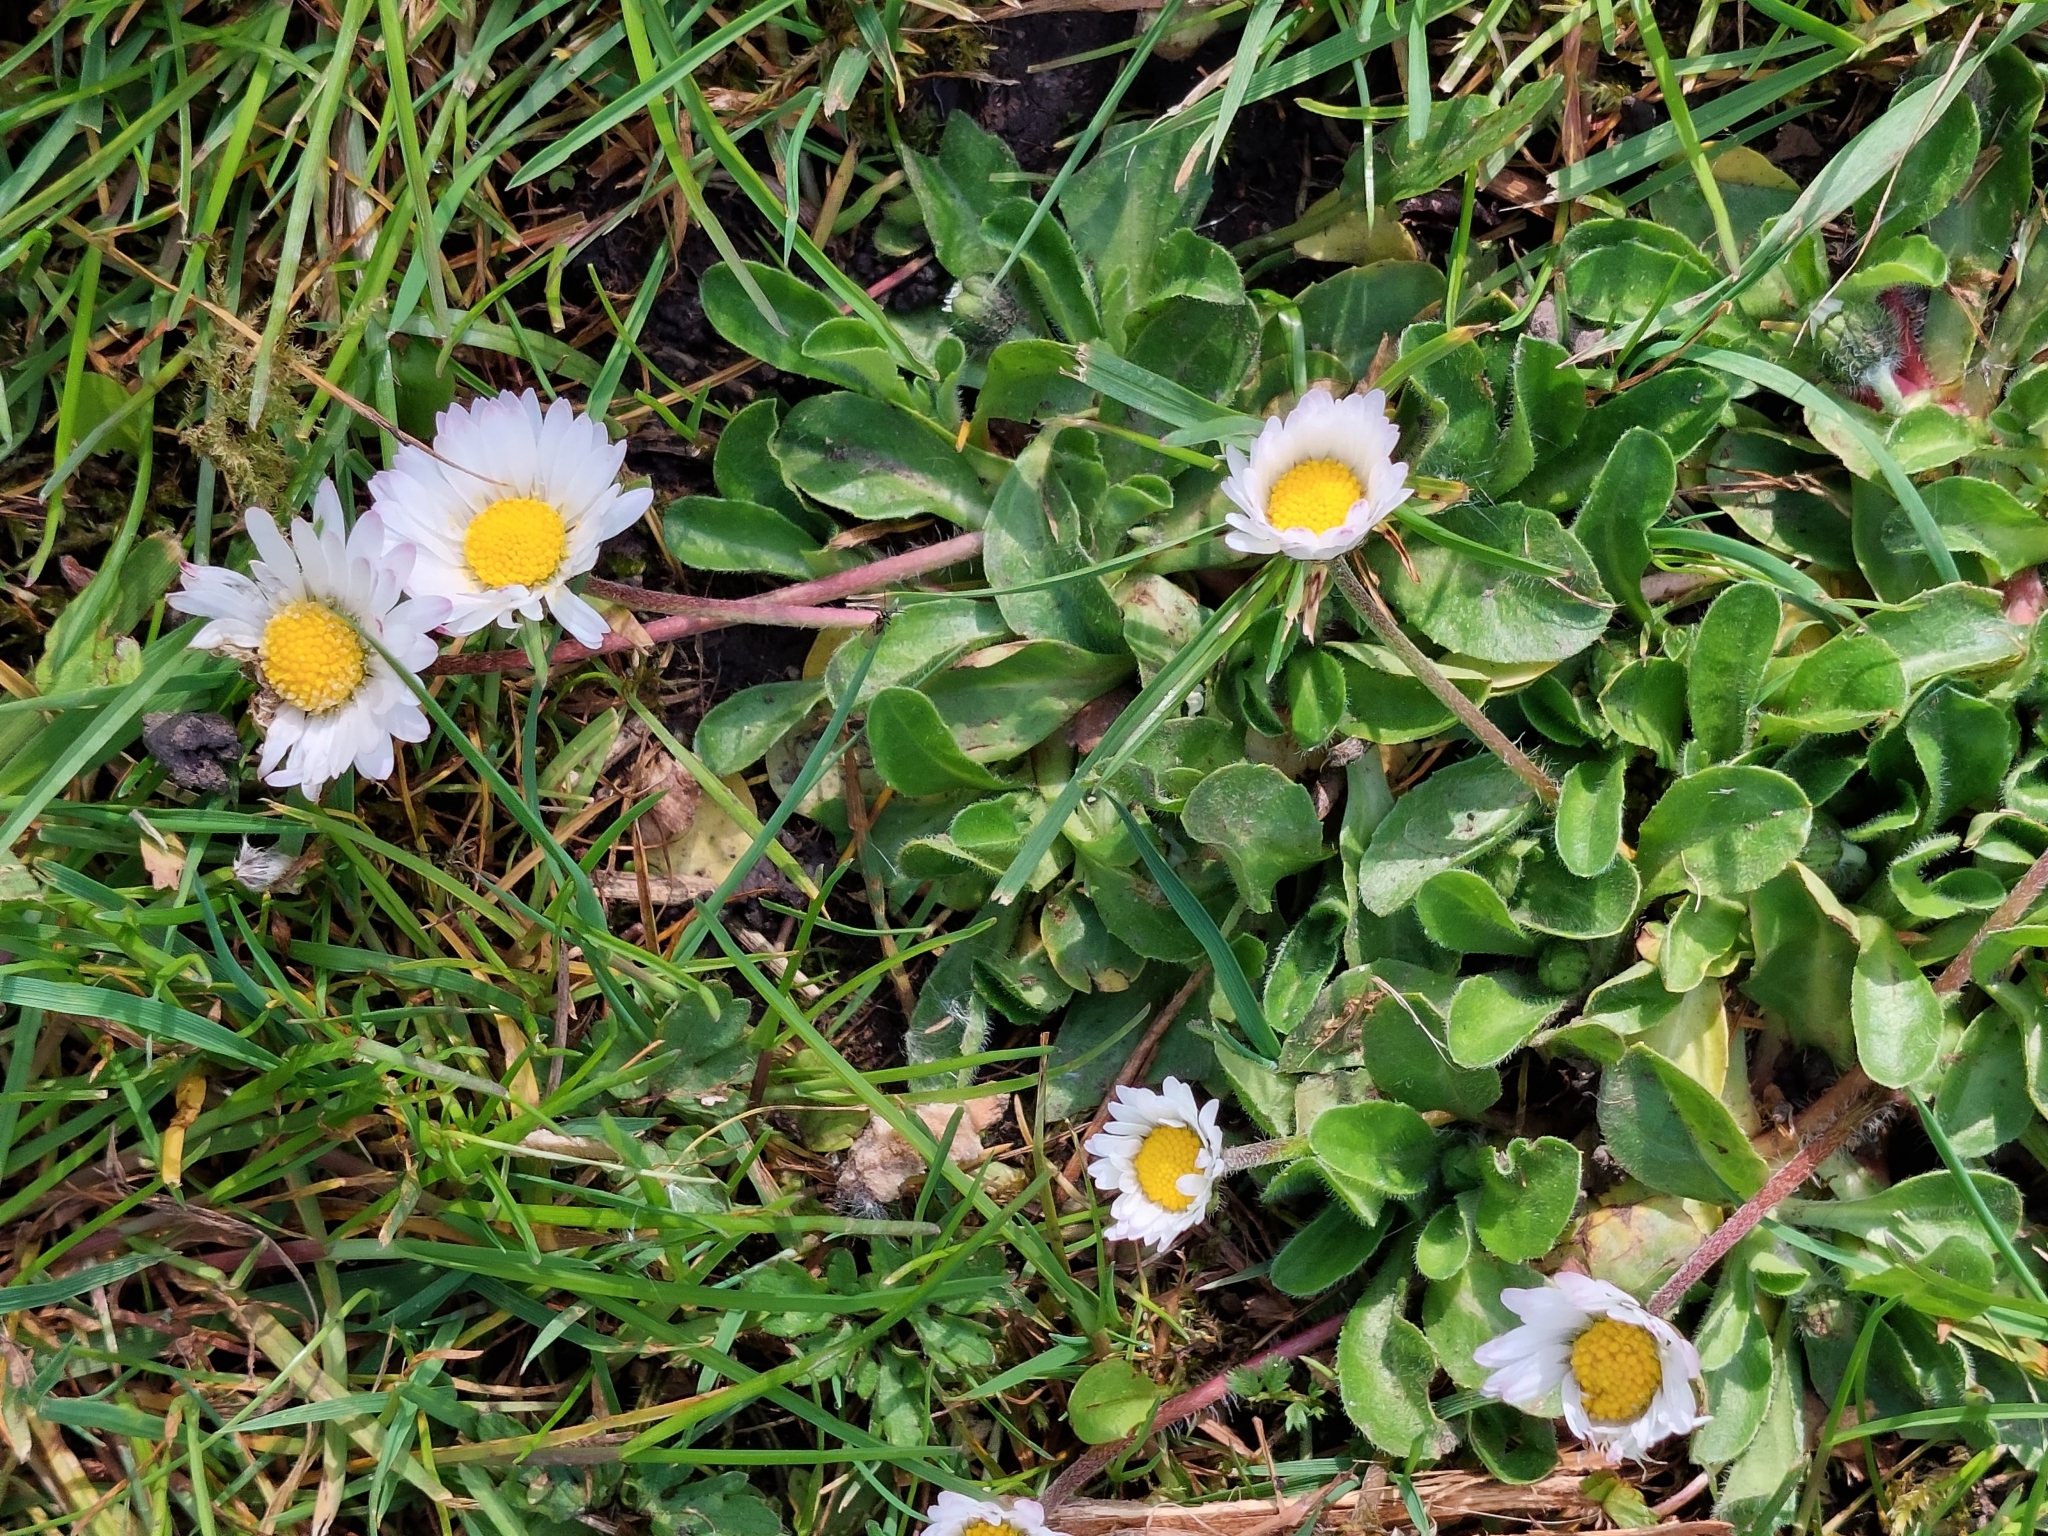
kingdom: Plantae
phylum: Tracheophyta
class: Magnoliopsida
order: Asterales
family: Asteraceae
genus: Bellis
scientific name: Bellis perennis
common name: Lawndaisy
